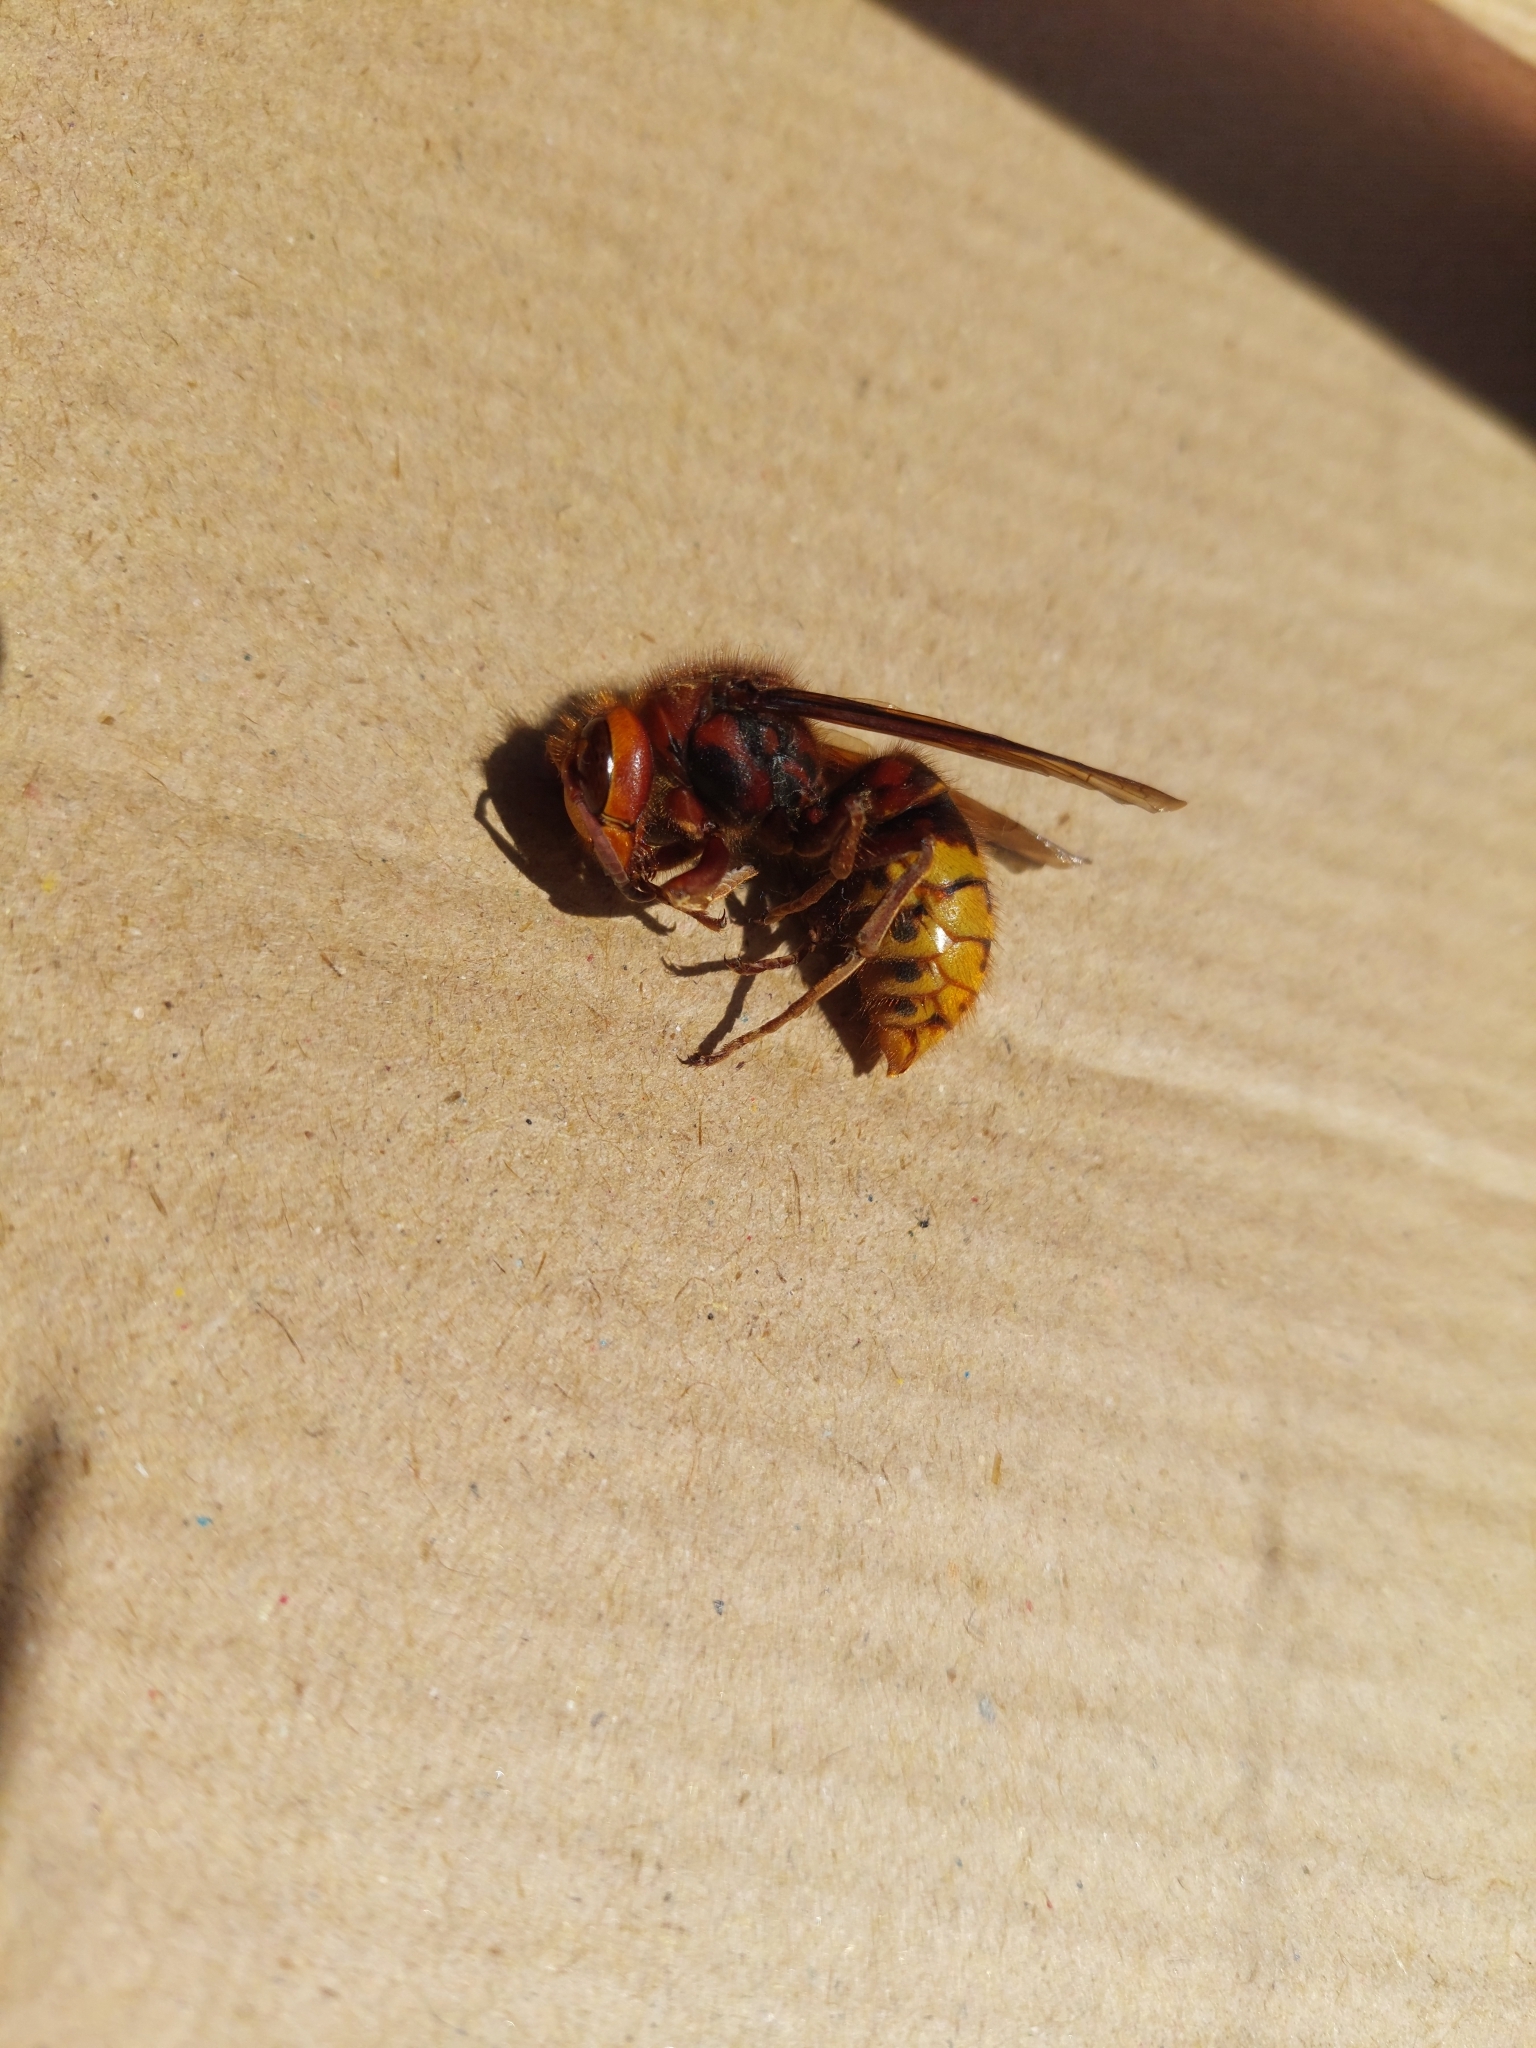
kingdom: Animalia
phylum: Arthropoda
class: Insecta
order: Hymenoptera
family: Vespidae
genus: Vespa
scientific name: Vespa crabro
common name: Hornet
